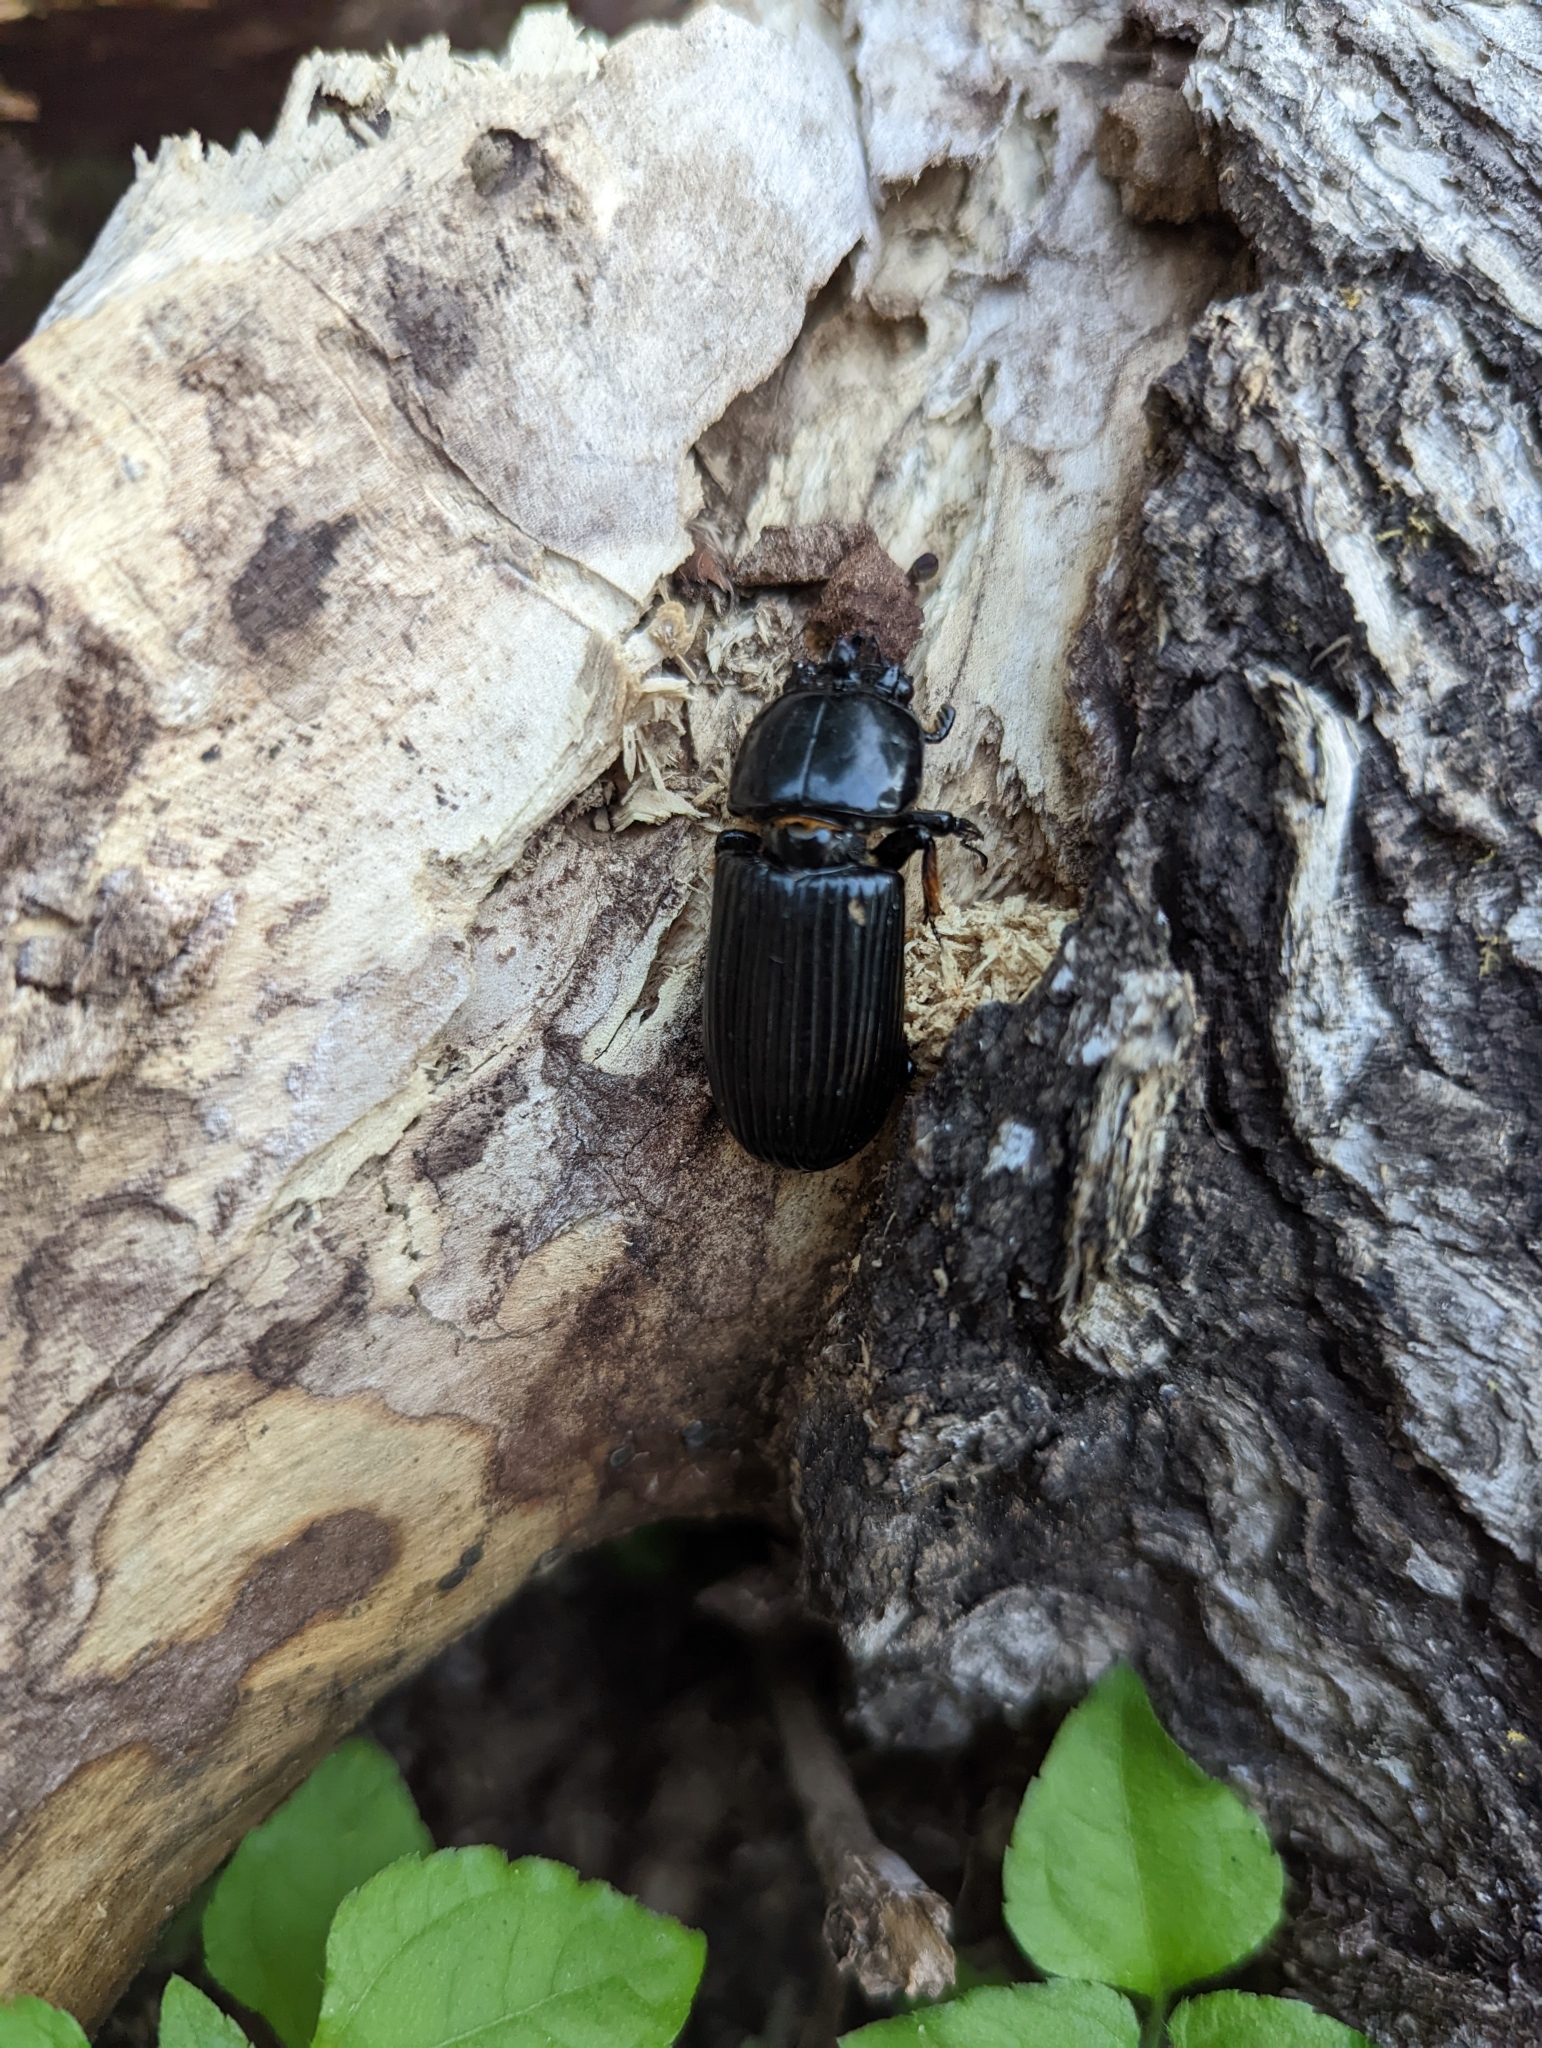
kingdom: Animalia
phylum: Arthropoda
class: Insecta
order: Coleoptera
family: Passalidae
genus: Odontotaenius
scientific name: Odontotaenius disjunctus
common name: Patent leather beetle
